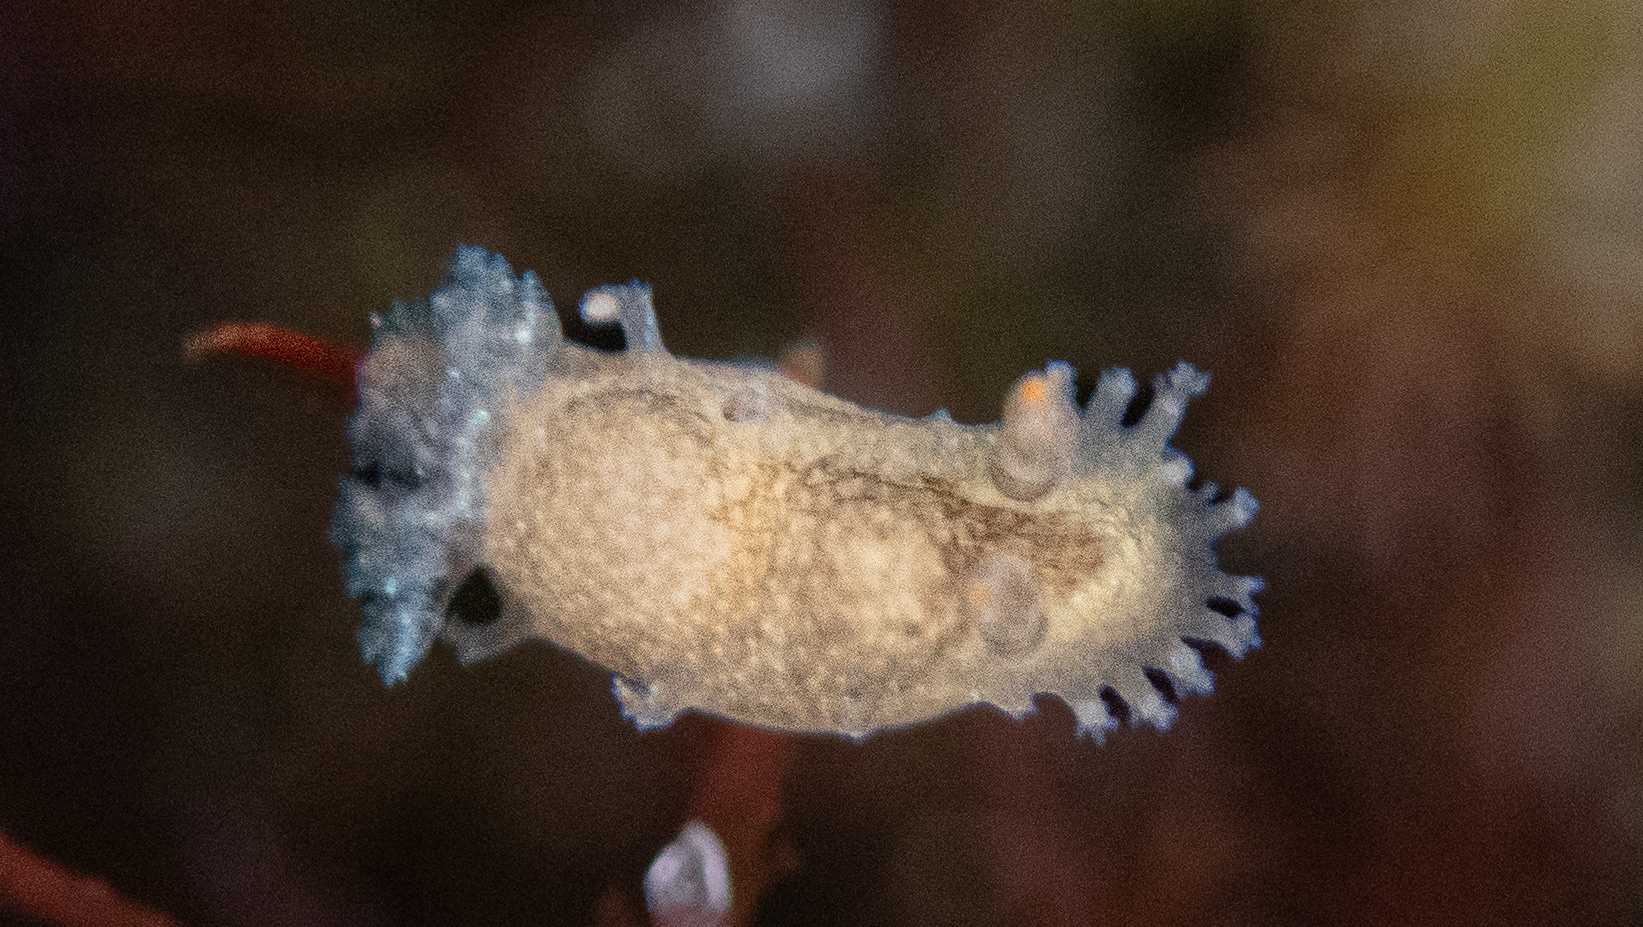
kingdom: Animalia
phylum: Mollusca
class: Gastropoda
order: Nudibranchia
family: Polyceridae
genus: Triopha
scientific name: Triopha maculata
